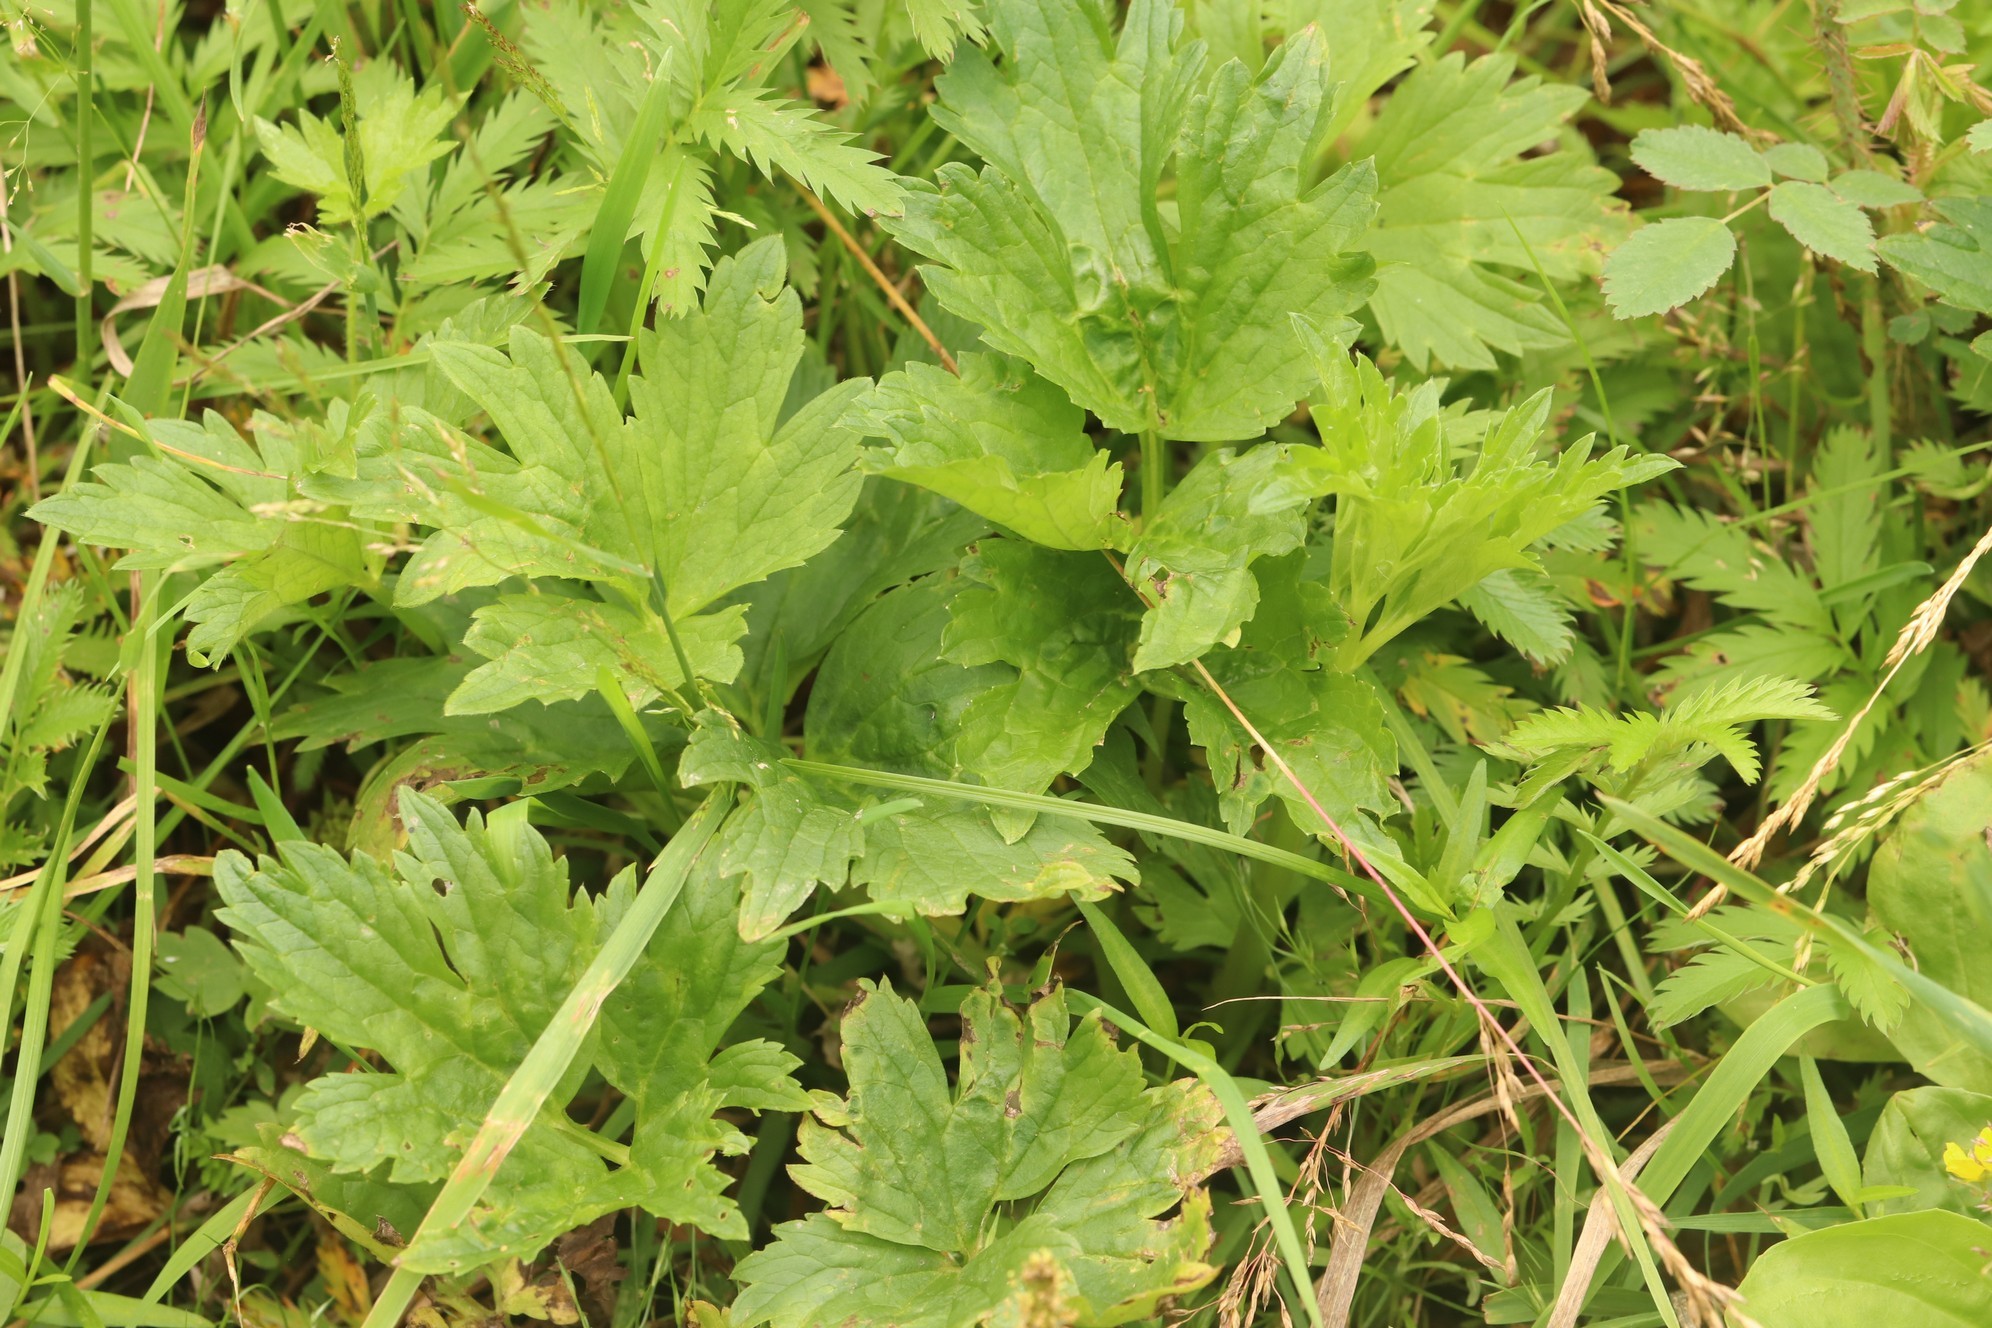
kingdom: Plantae
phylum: Tracheophyta
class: Magnoliopsida
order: Ranunculales
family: Ranunculaceae
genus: Ranunculus
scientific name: Ranunculus repens
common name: Creeping buttercup
